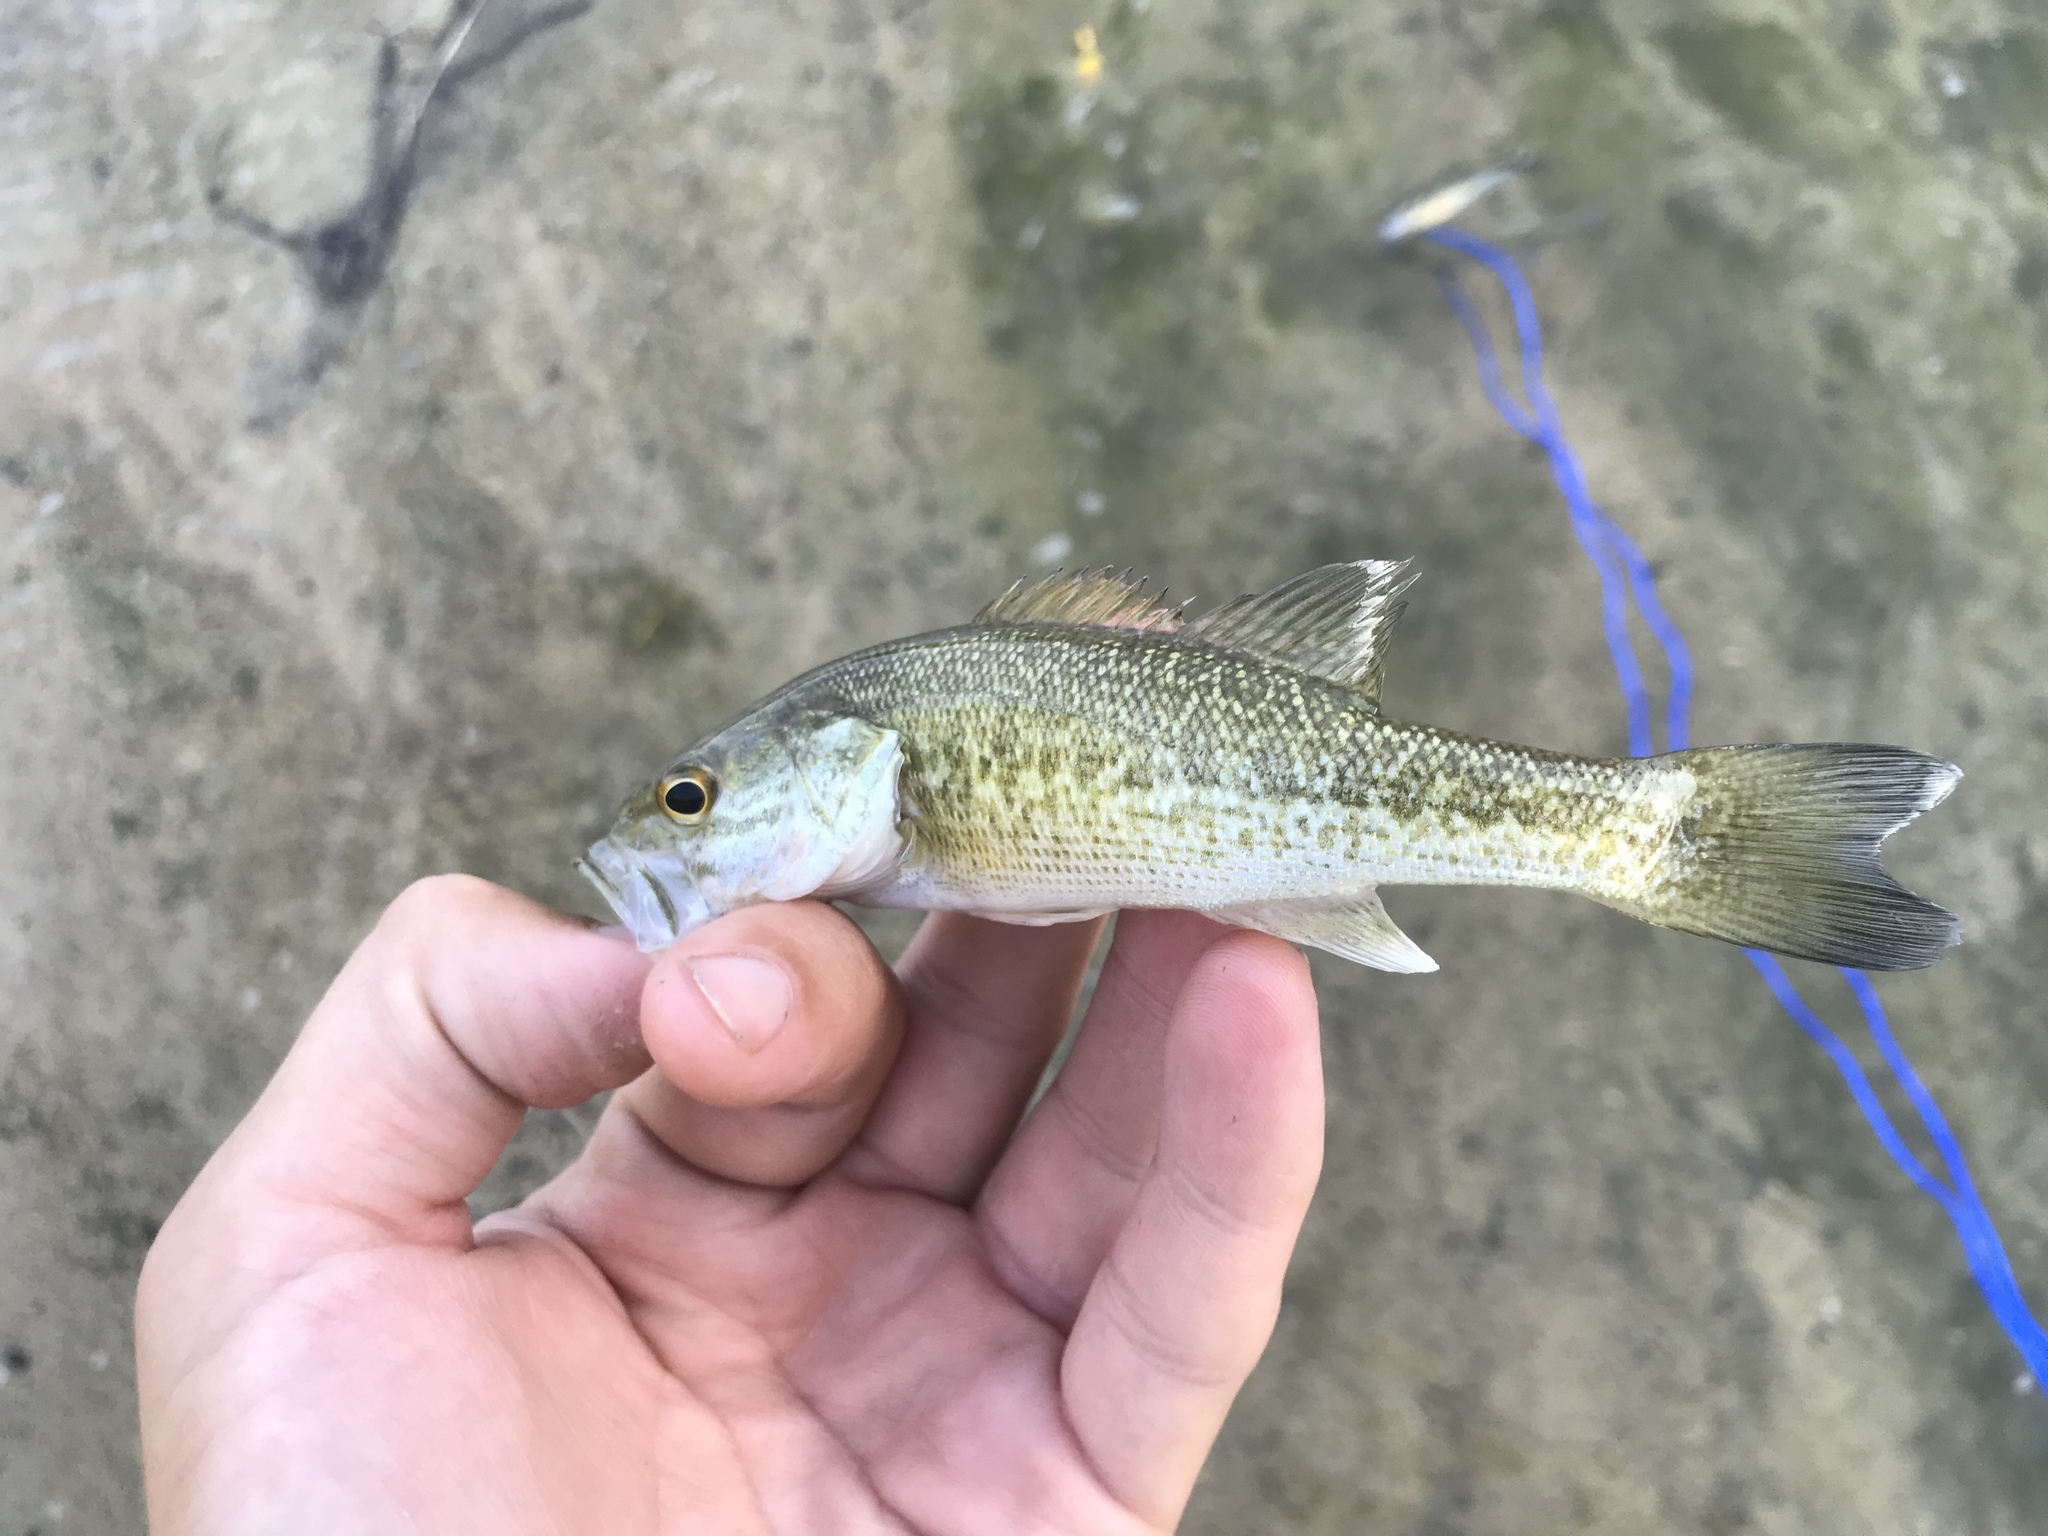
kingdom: Animalia
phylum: Chordata
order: Perciformes
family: Centrarchidae
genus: Micropterus
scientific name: Micropterus treculii
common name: Guadalupe bass
